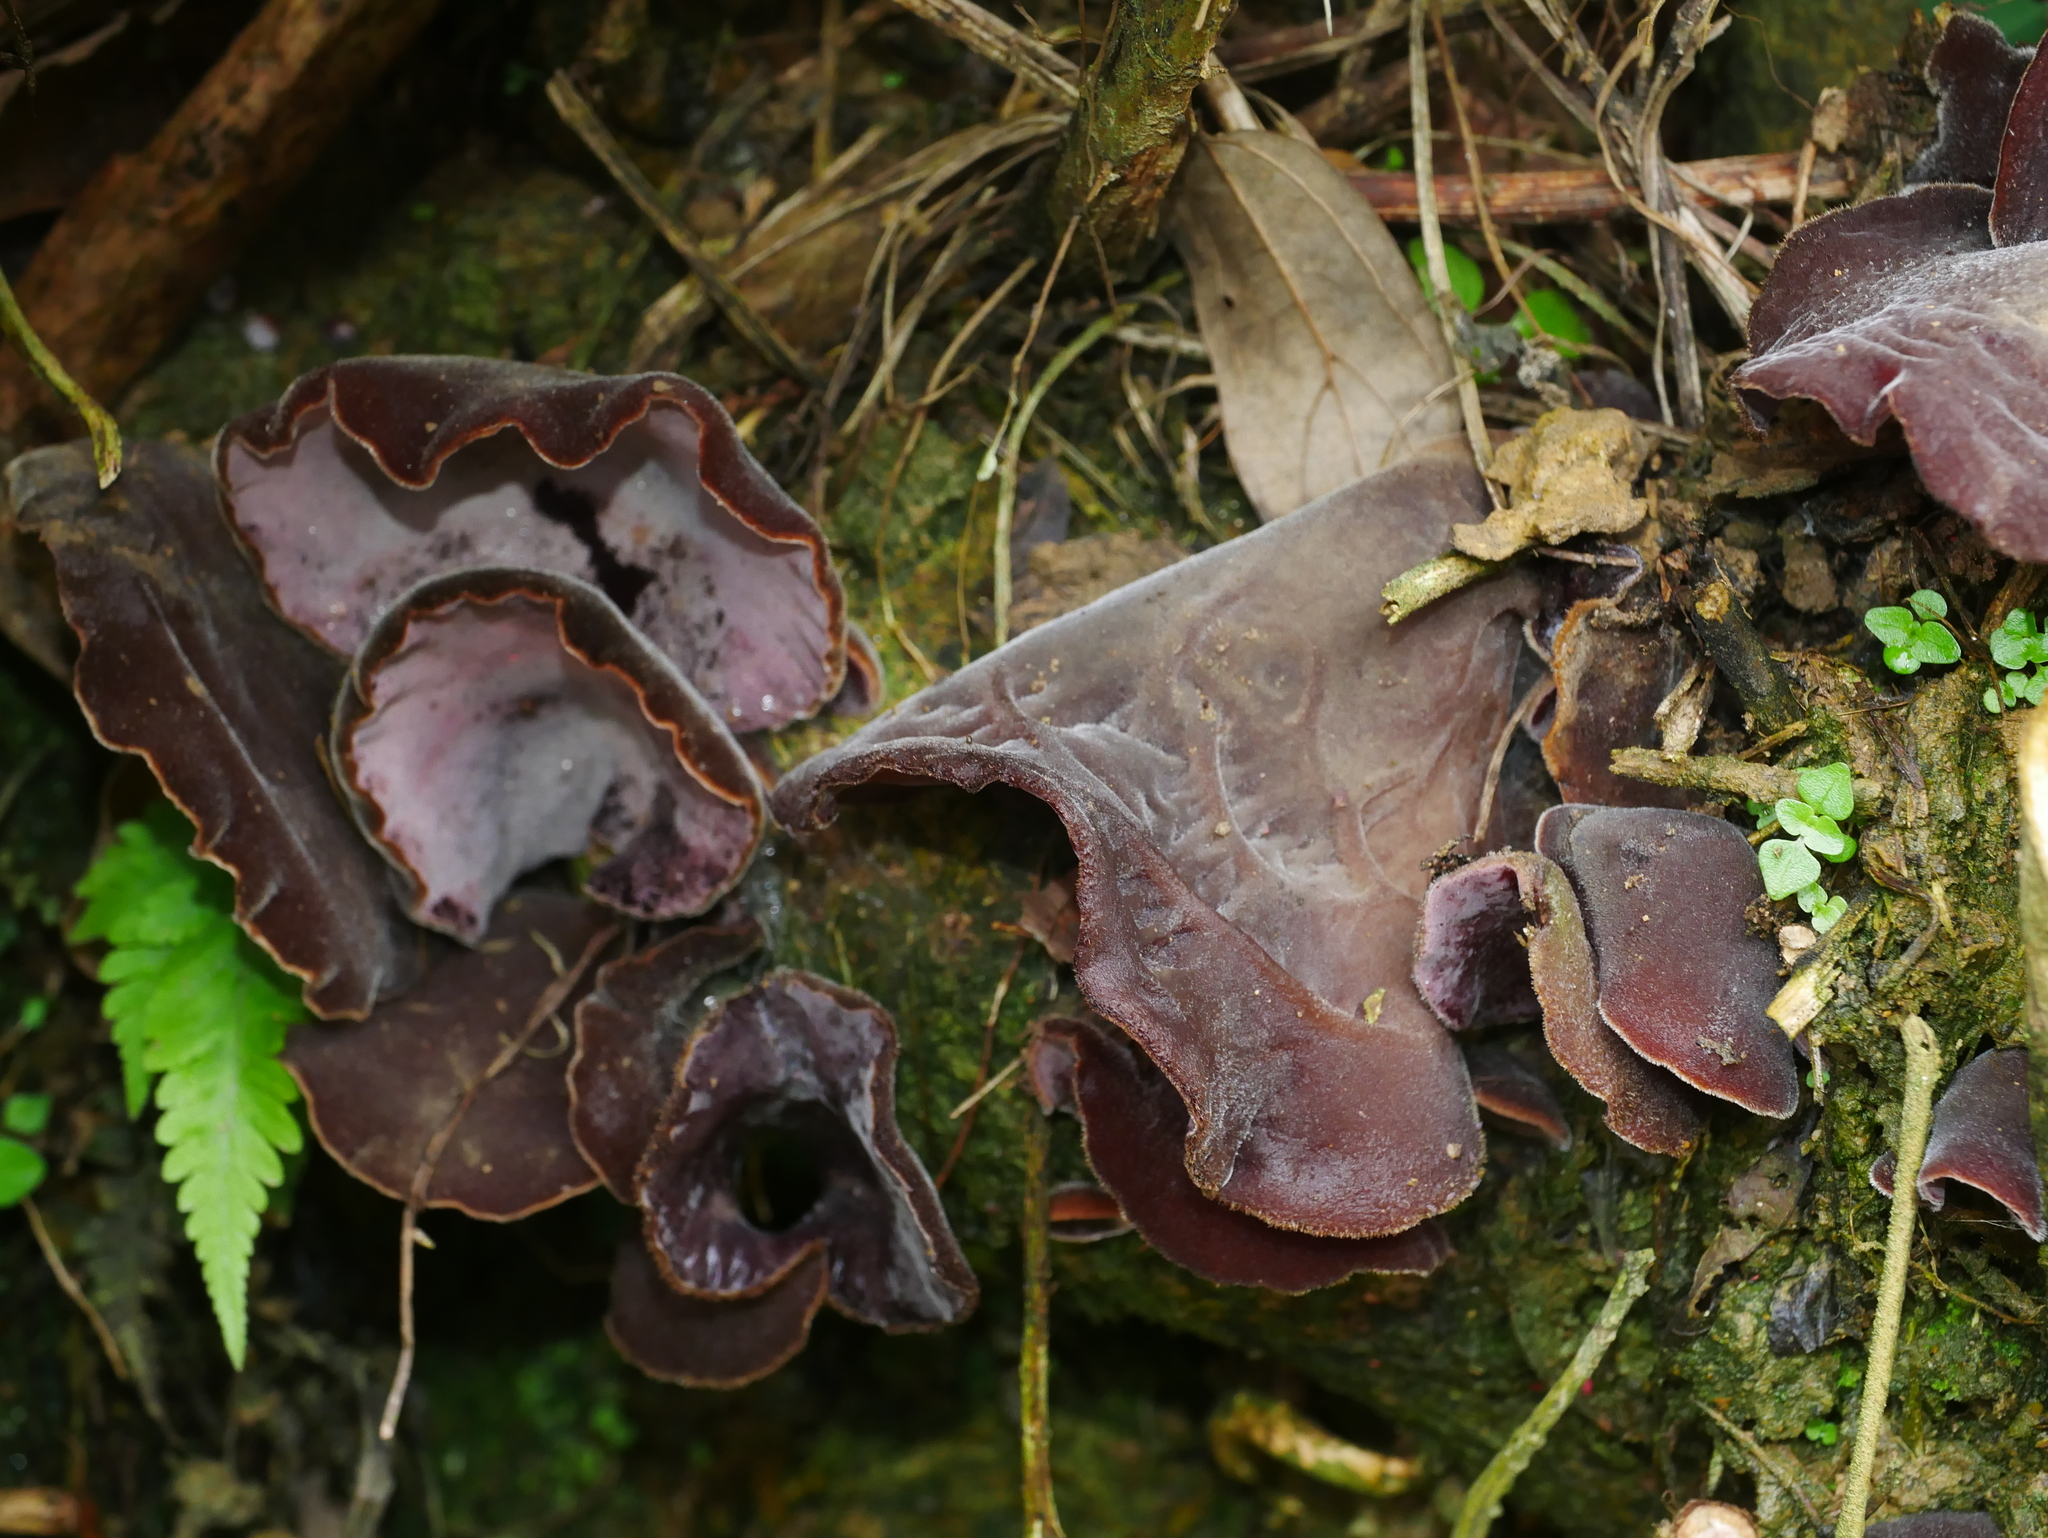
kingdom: Fungi
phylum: Basidiomycota
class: Agaricomycetes
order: Auriculariales
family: Auriculariaceae
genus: Auricularia
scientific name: Auricularia nigricans
